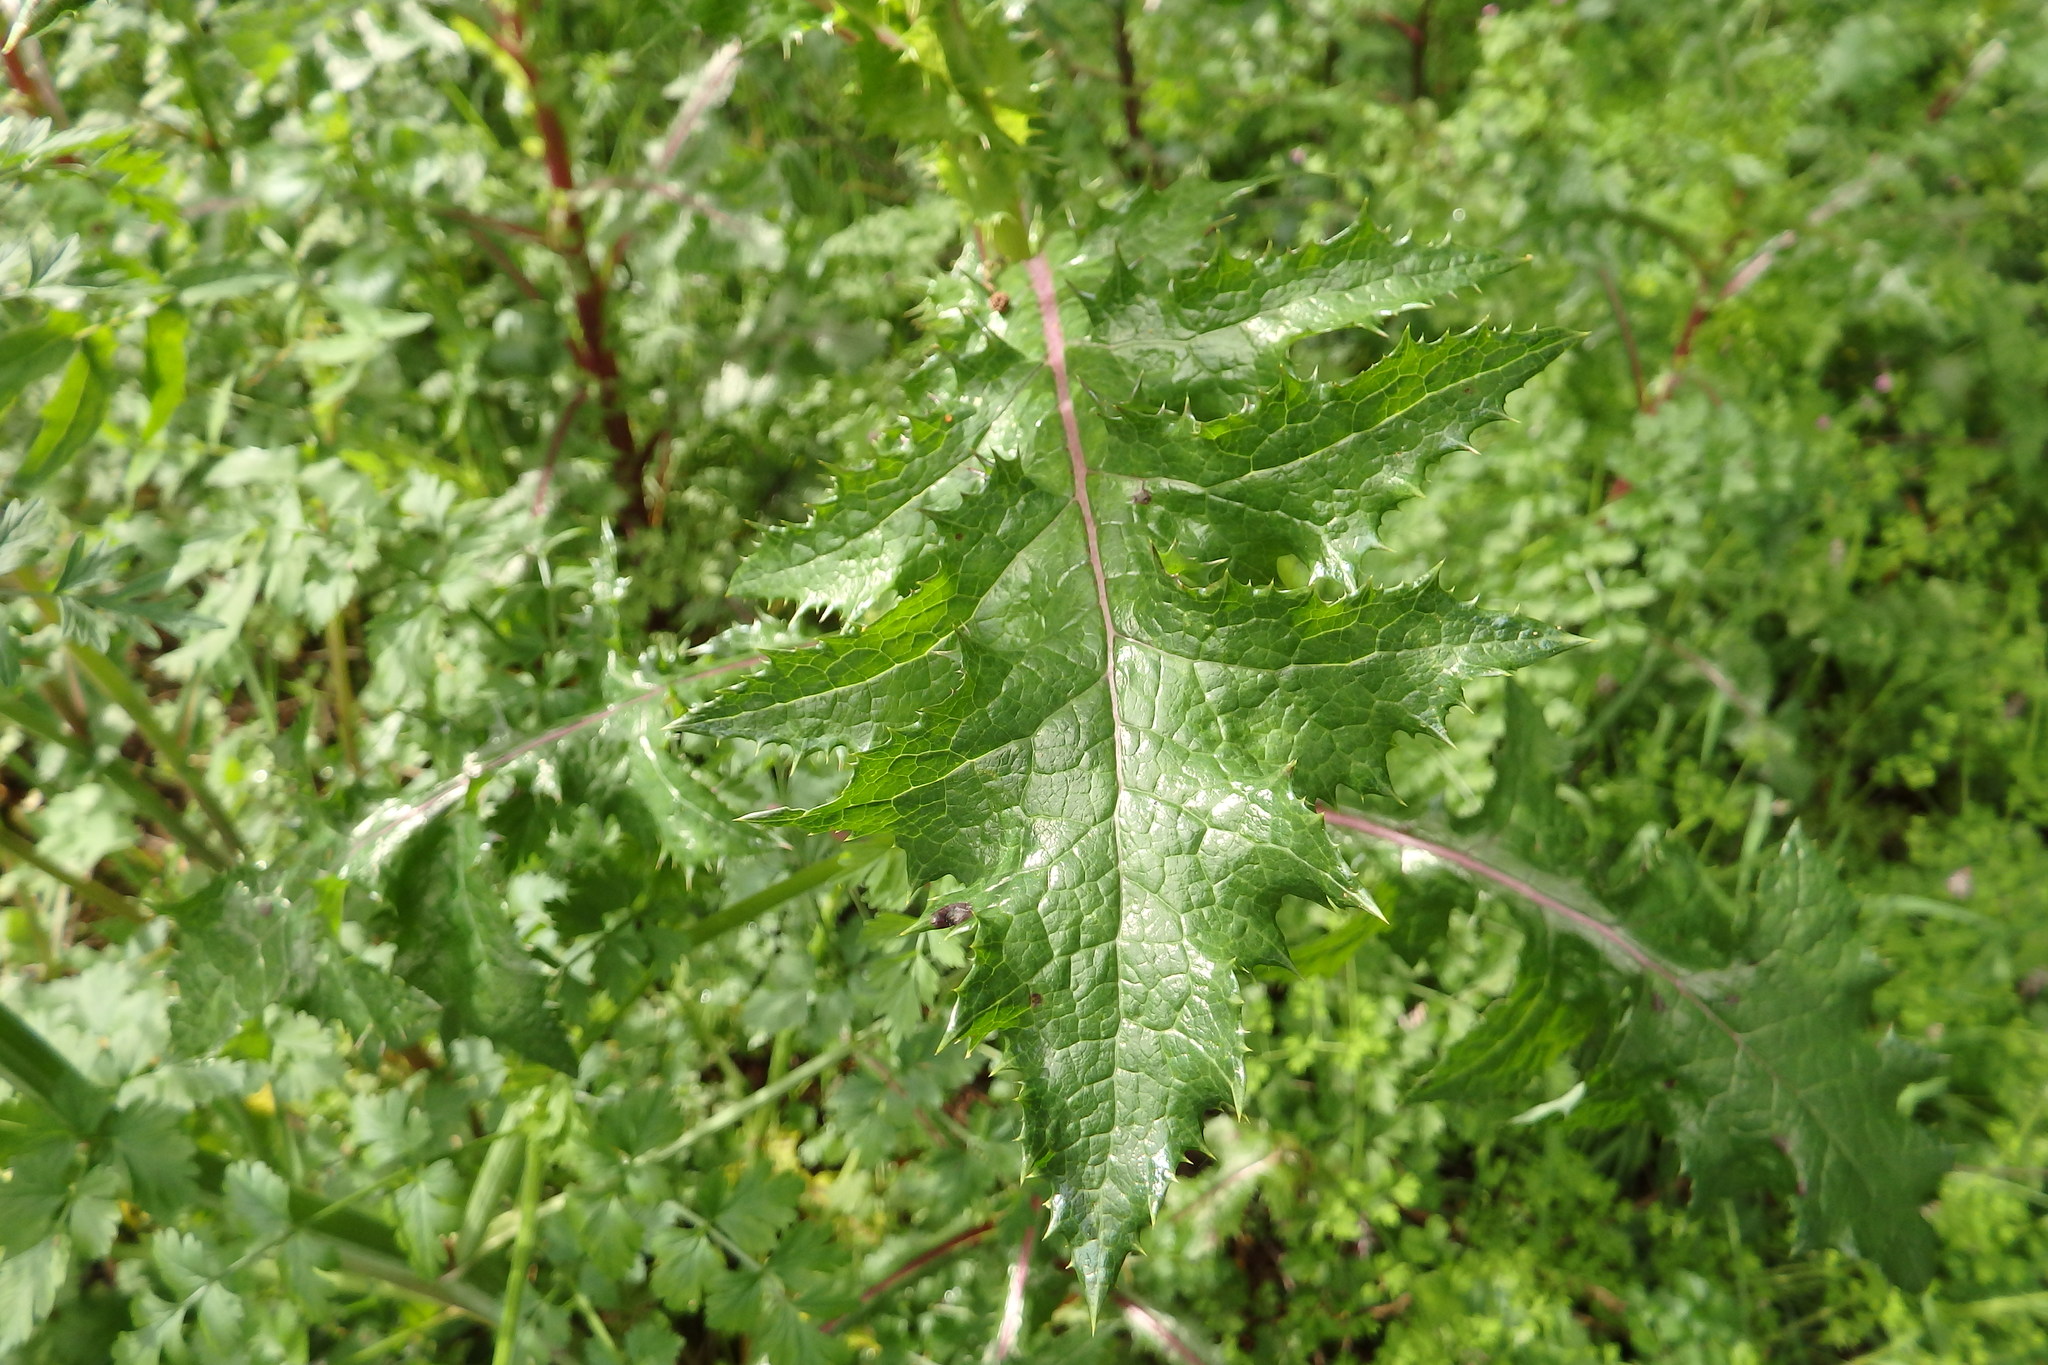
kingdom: Plantae
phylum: Tracheophyta
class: Magnoliopsida
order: Asterales
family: Asteraceae
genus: Sonchus
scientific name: Sonchus asper
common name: Prickly sow-thistle
